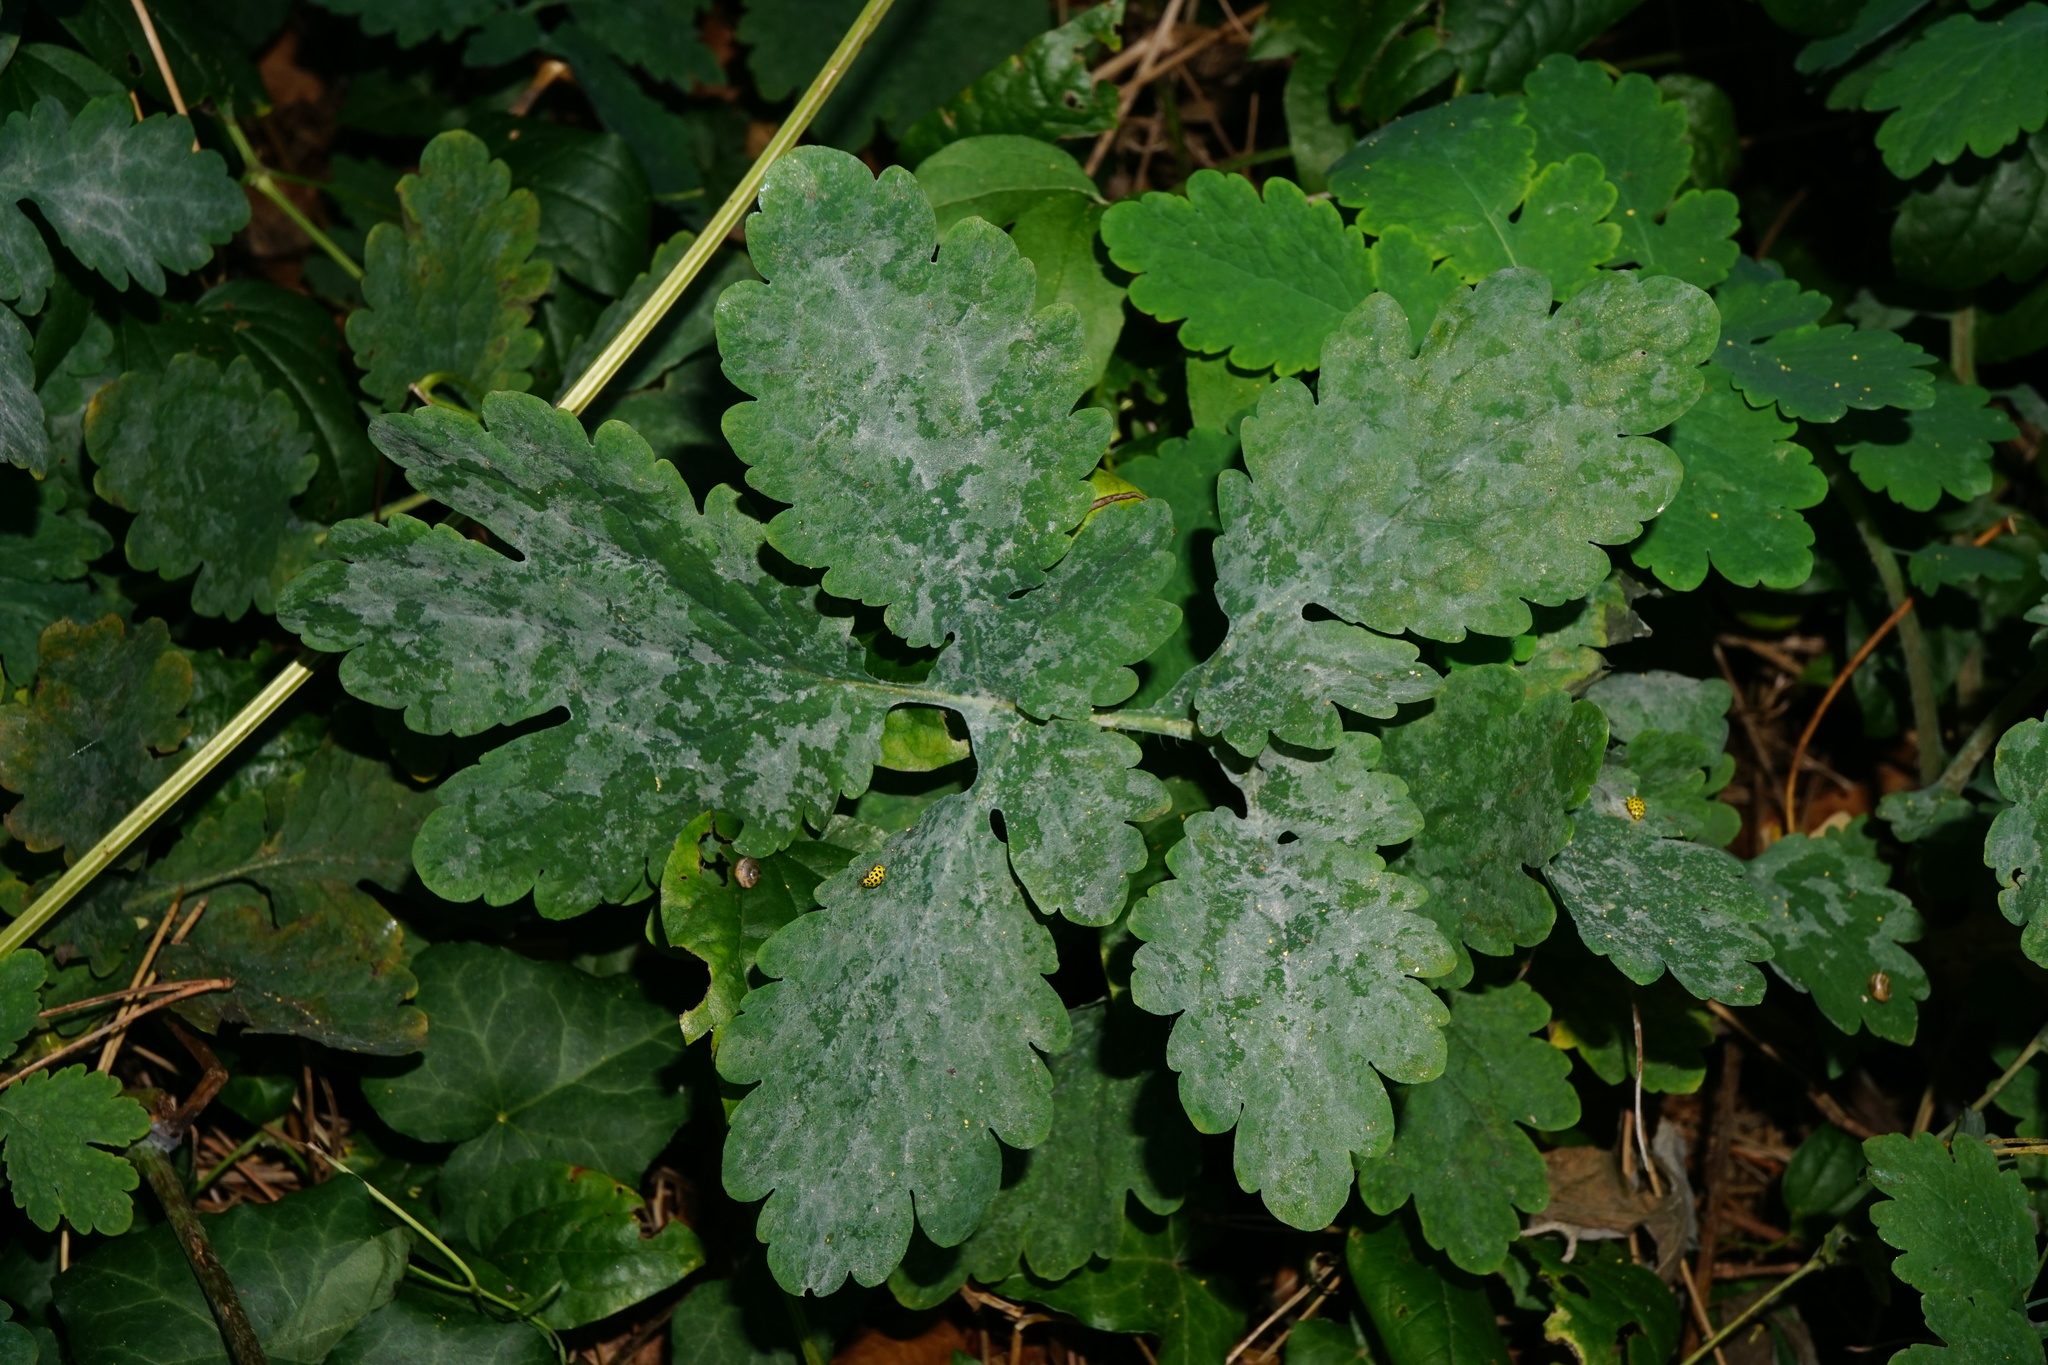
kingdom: Fungi
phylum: Ascomycota
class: Leotiomycetes
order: Helotiales
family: Erysiphaceae
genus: Erysiphe
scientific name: Erysiphe macleayae
